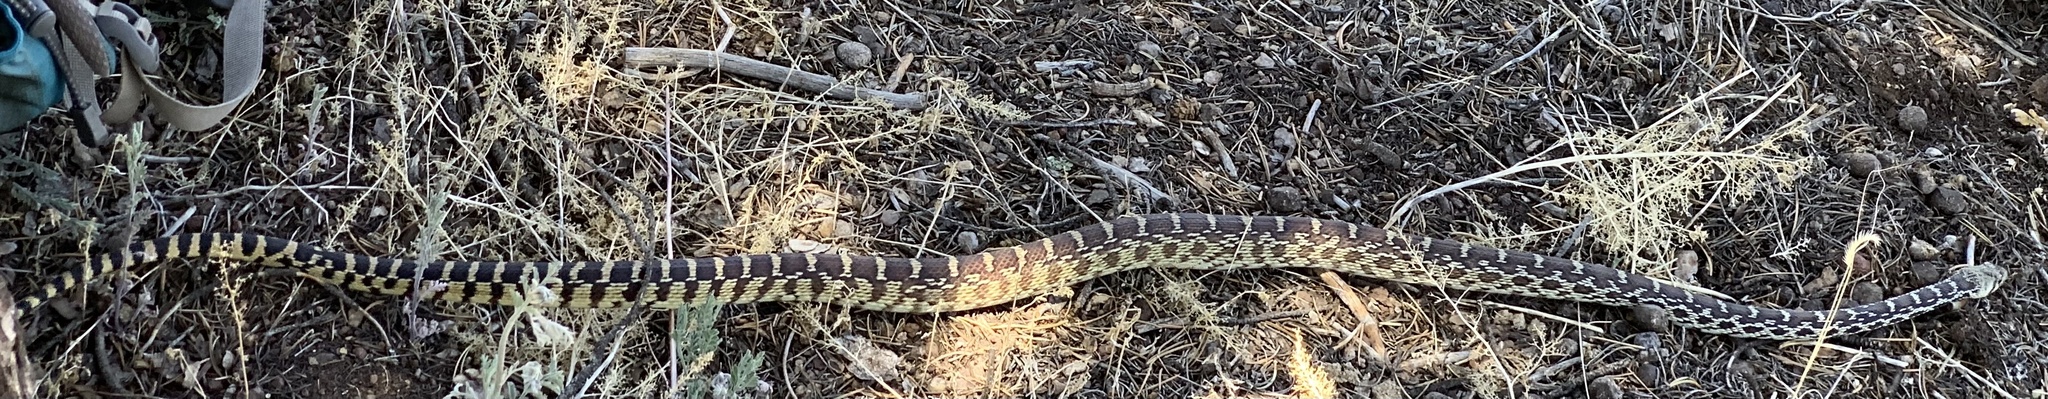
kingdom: Animalia
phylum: Chordata
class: Squamata
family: Colubridae
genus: Pituophis
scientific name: Pituophis catenifer
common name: Gopher snake
